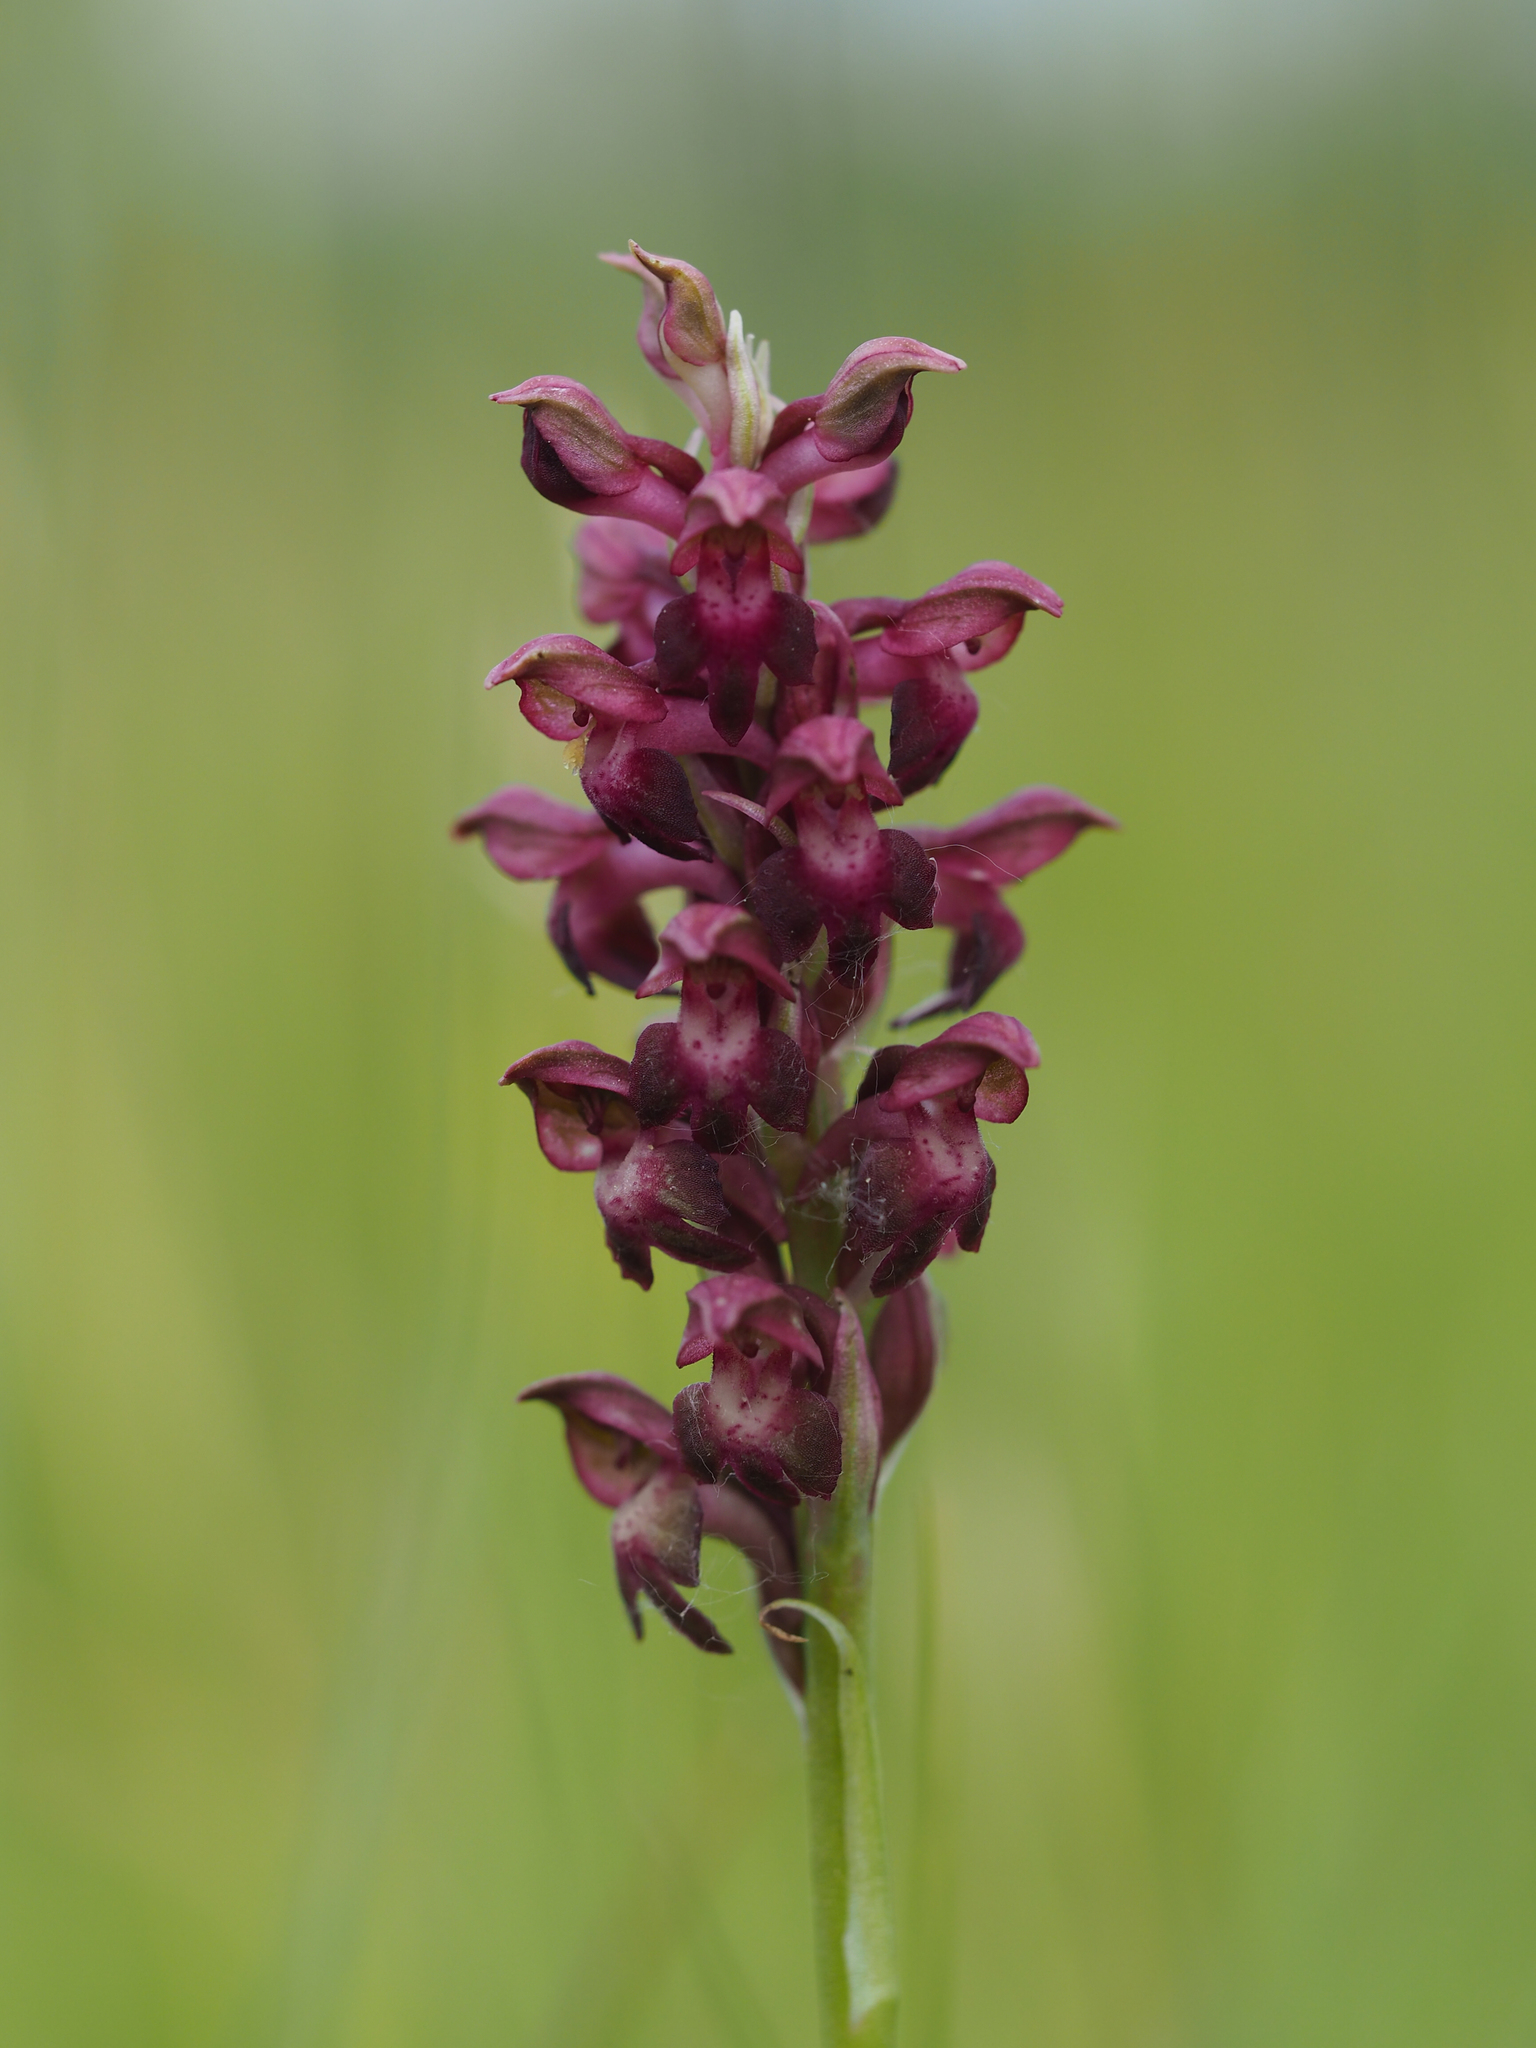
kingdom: Plantae
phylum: Tracheophyta
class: Liliopsida
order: Asparagales
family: Orchidaceae
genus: Anacamptis
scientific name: Anacamptis coriophora
